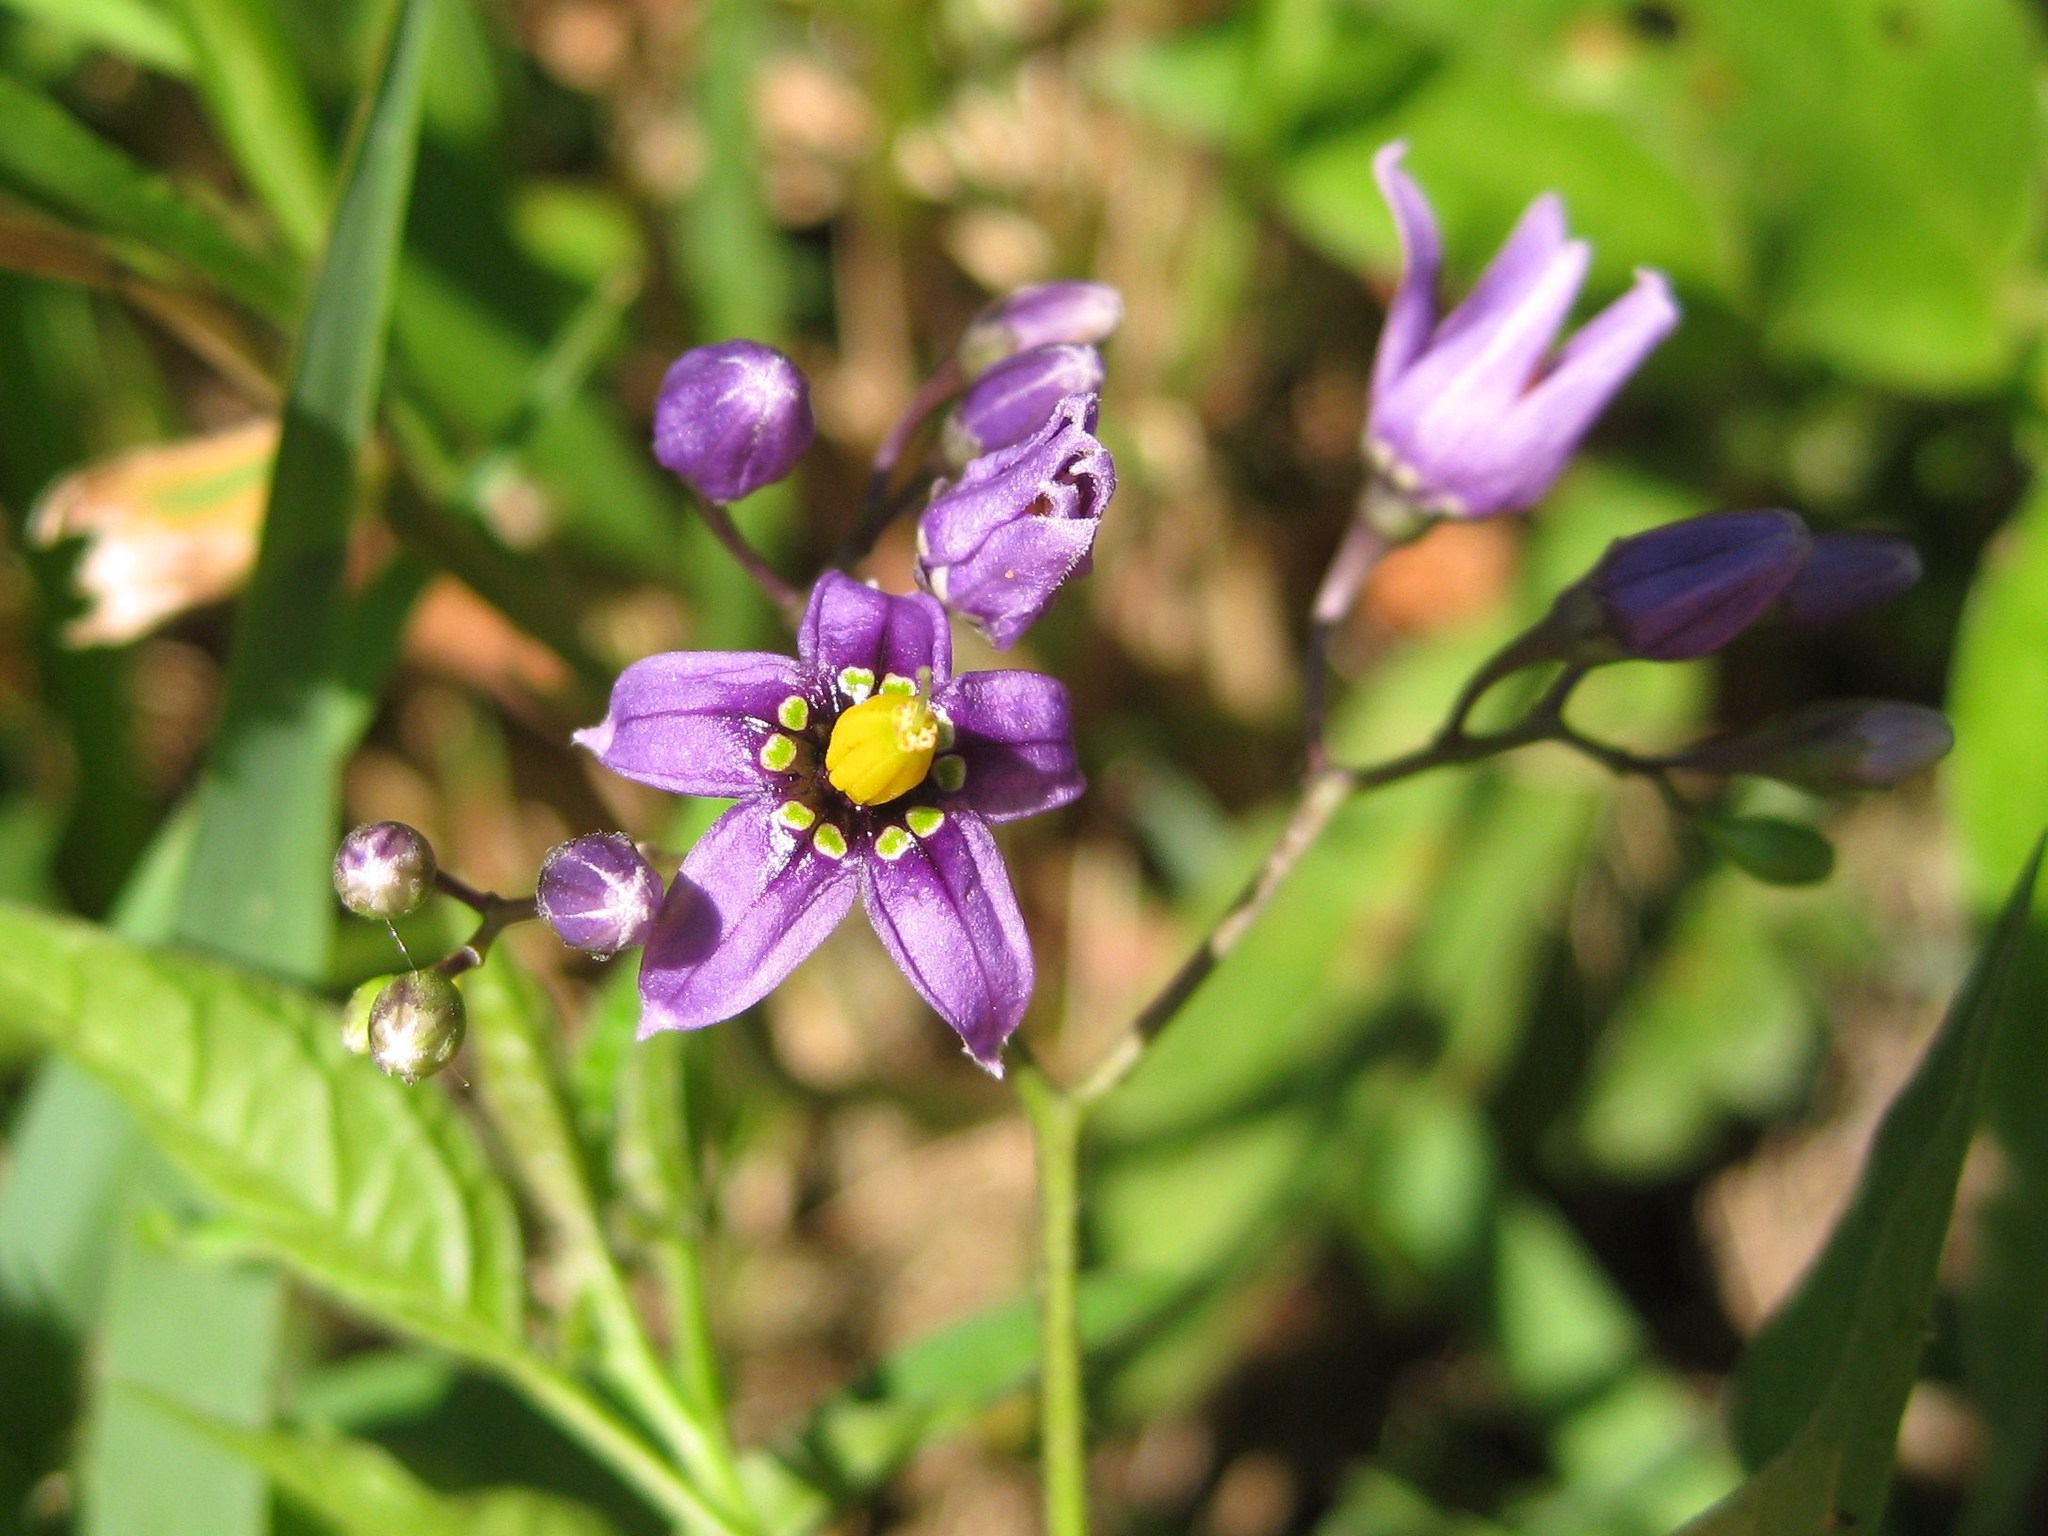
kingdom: Plantae
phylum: Tracheophyta
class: Magnoliopsida
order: Solanales
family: Solanaceae
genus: Solanum
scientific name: Solanum dulcamara
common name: Climbing nightshade
